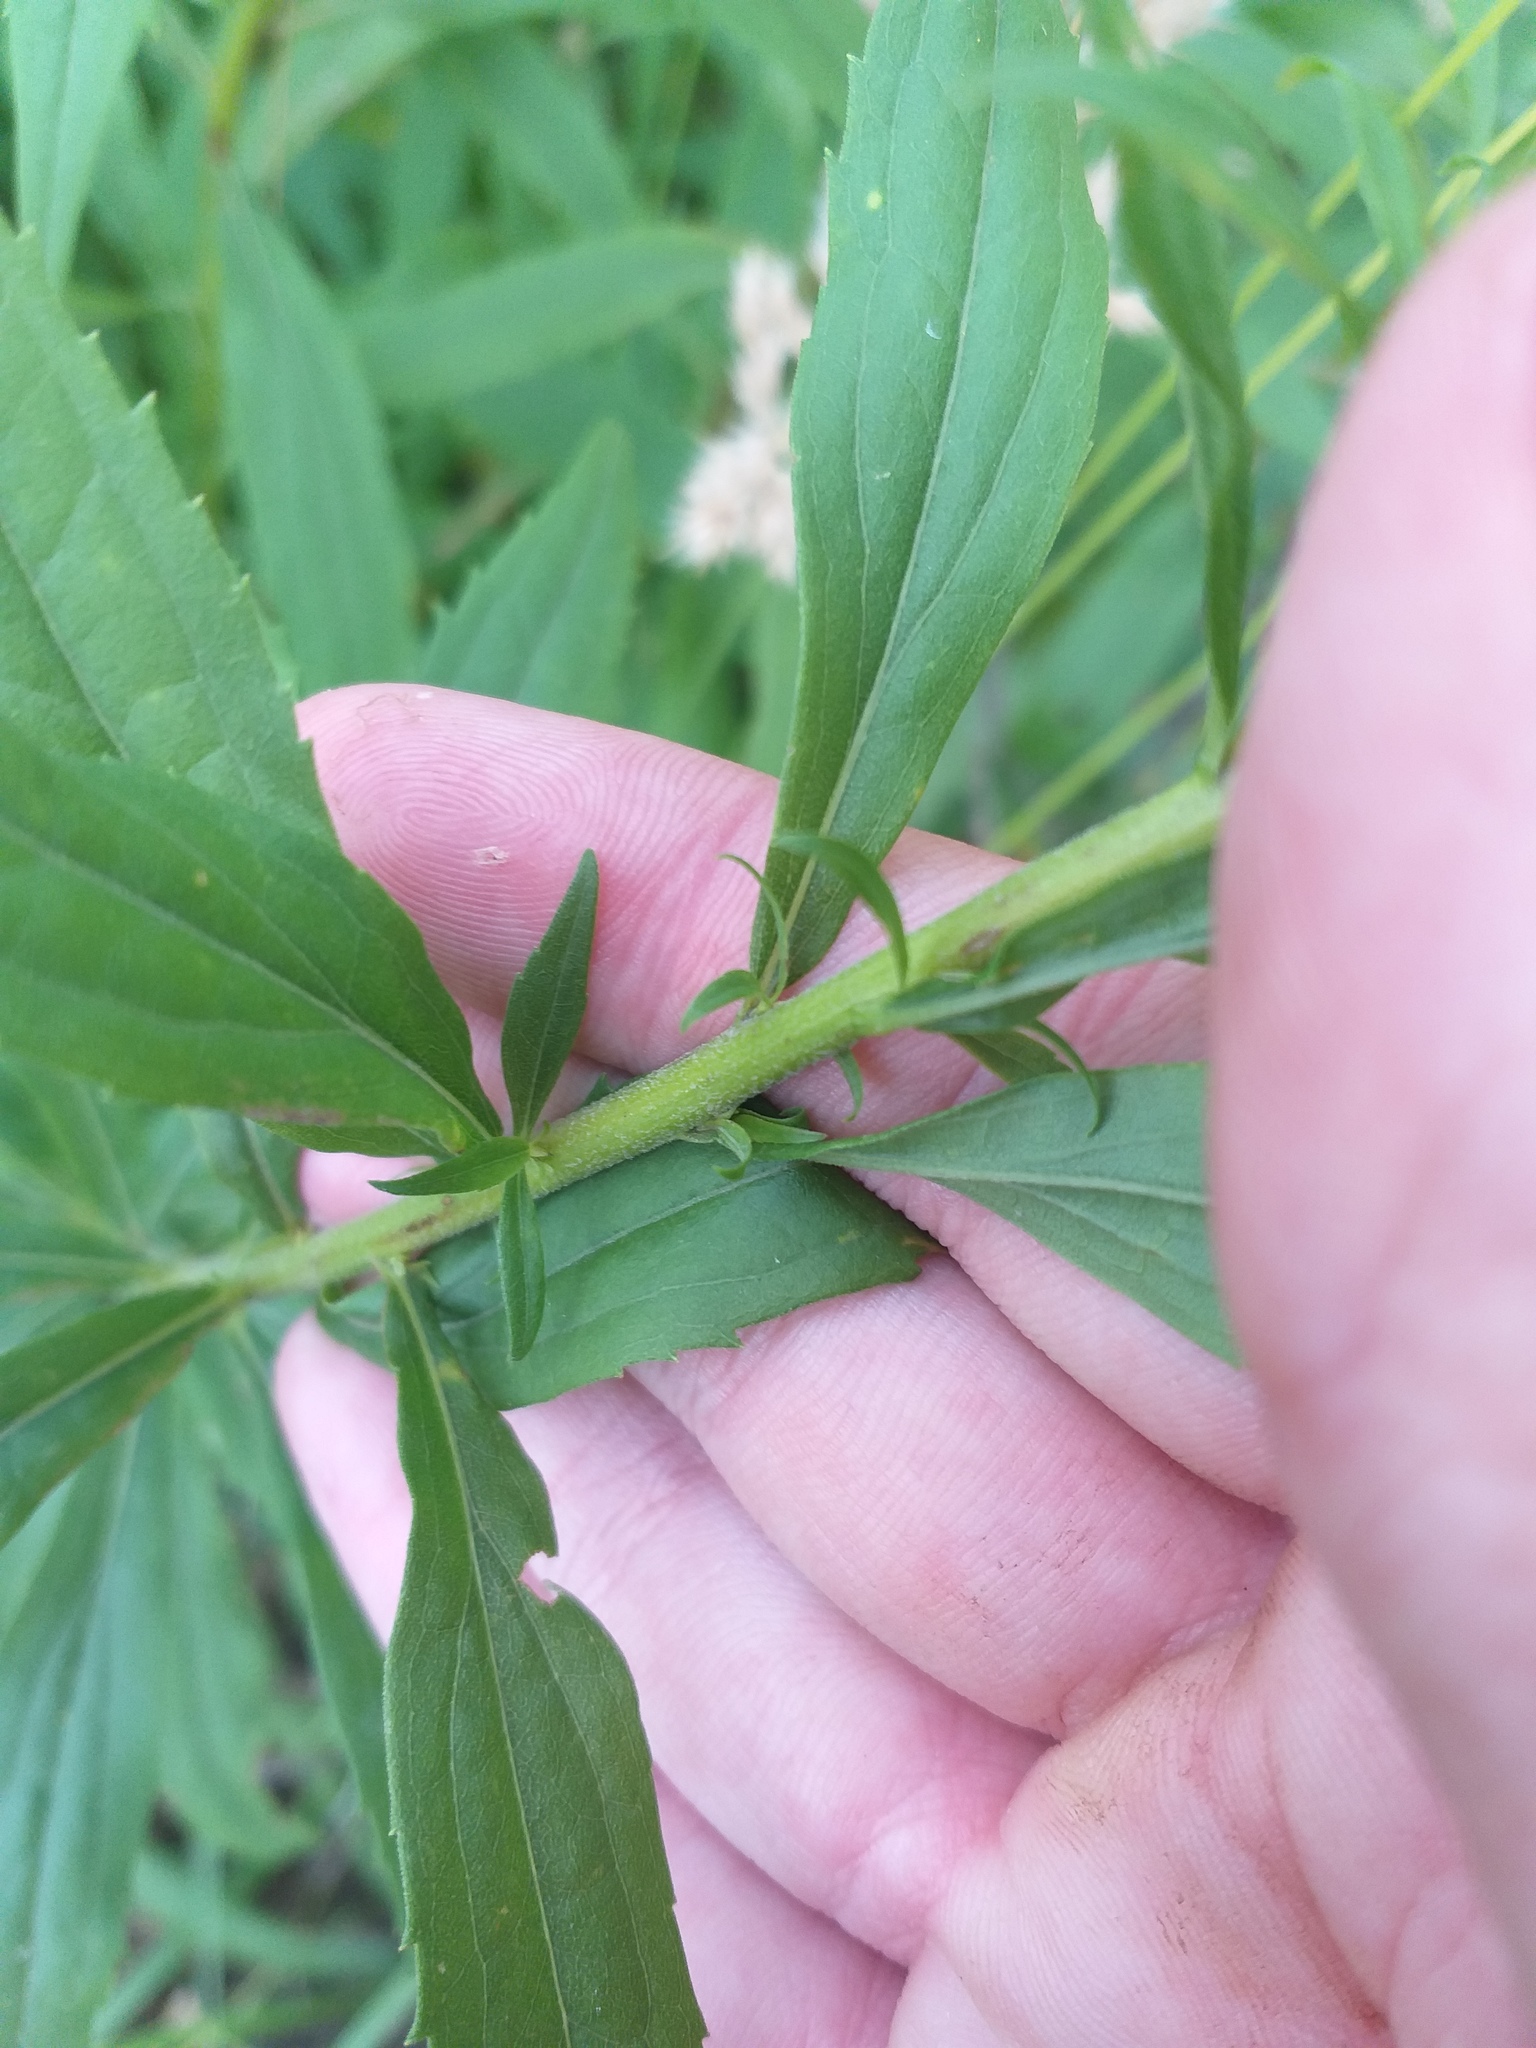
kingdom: Plantae
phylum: Tracheophyta
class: Magnoliopsida
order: Asterales
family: Asteraceae
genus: Solidago
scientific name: Solidago canadensis
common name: Canada goldenrod
